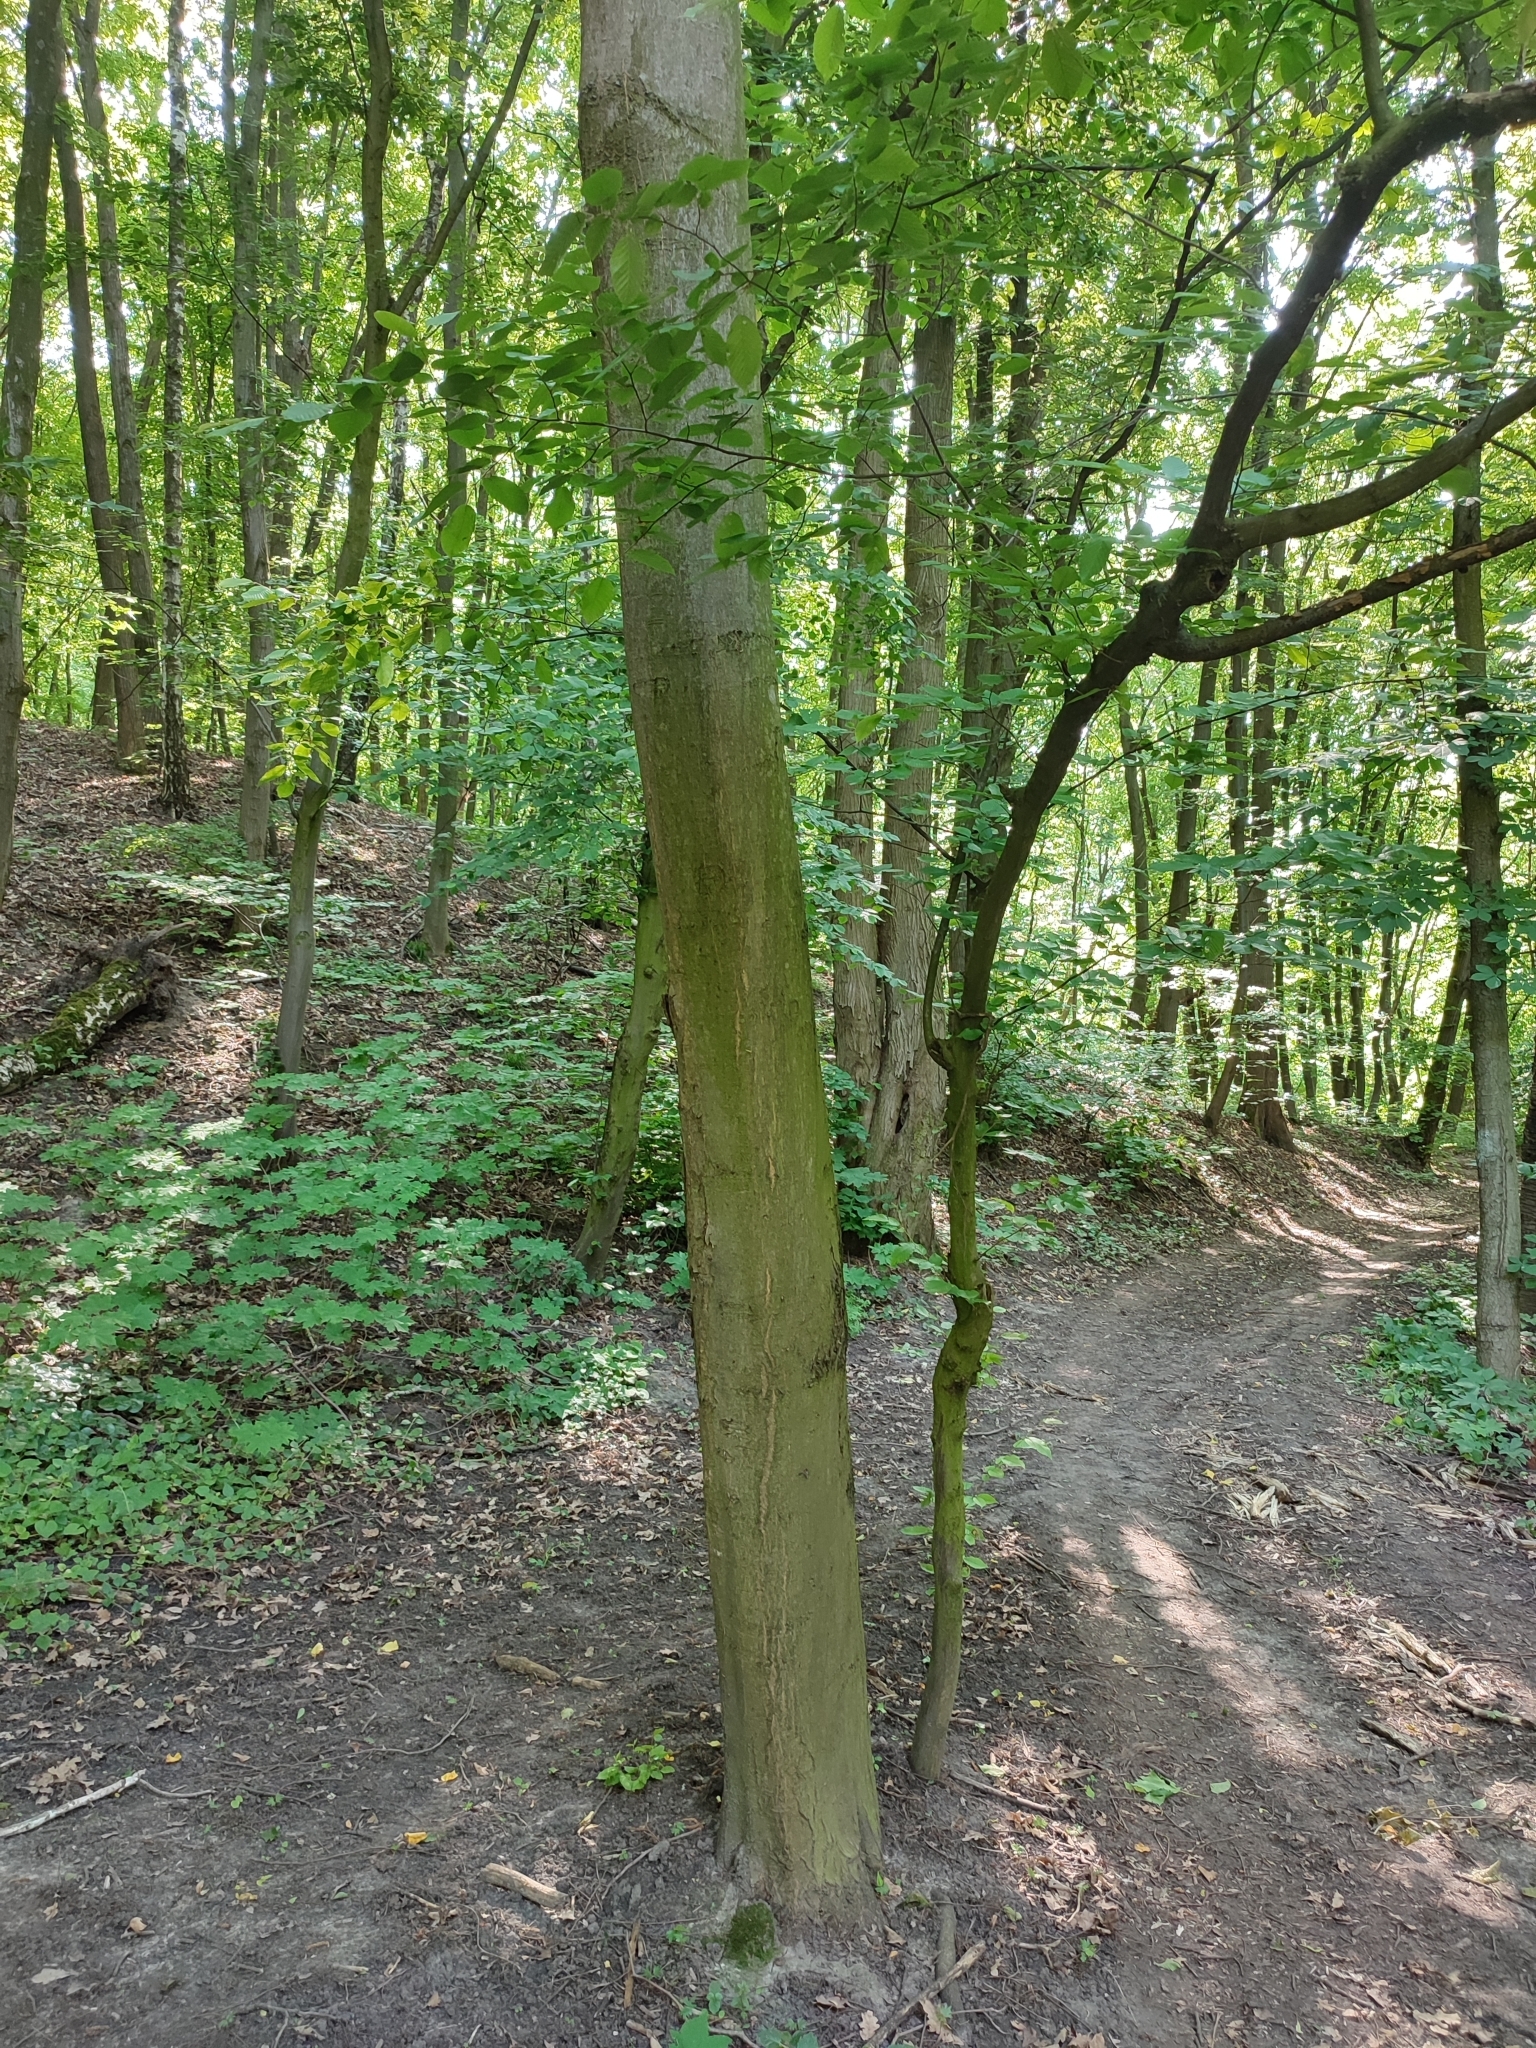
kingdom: Plantae
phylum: Tracheophyta
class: Magnoliopsida
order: Fagales
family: Betulaceae
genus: Carpinus
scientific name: Carpinus betulus
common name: Hornbeam
